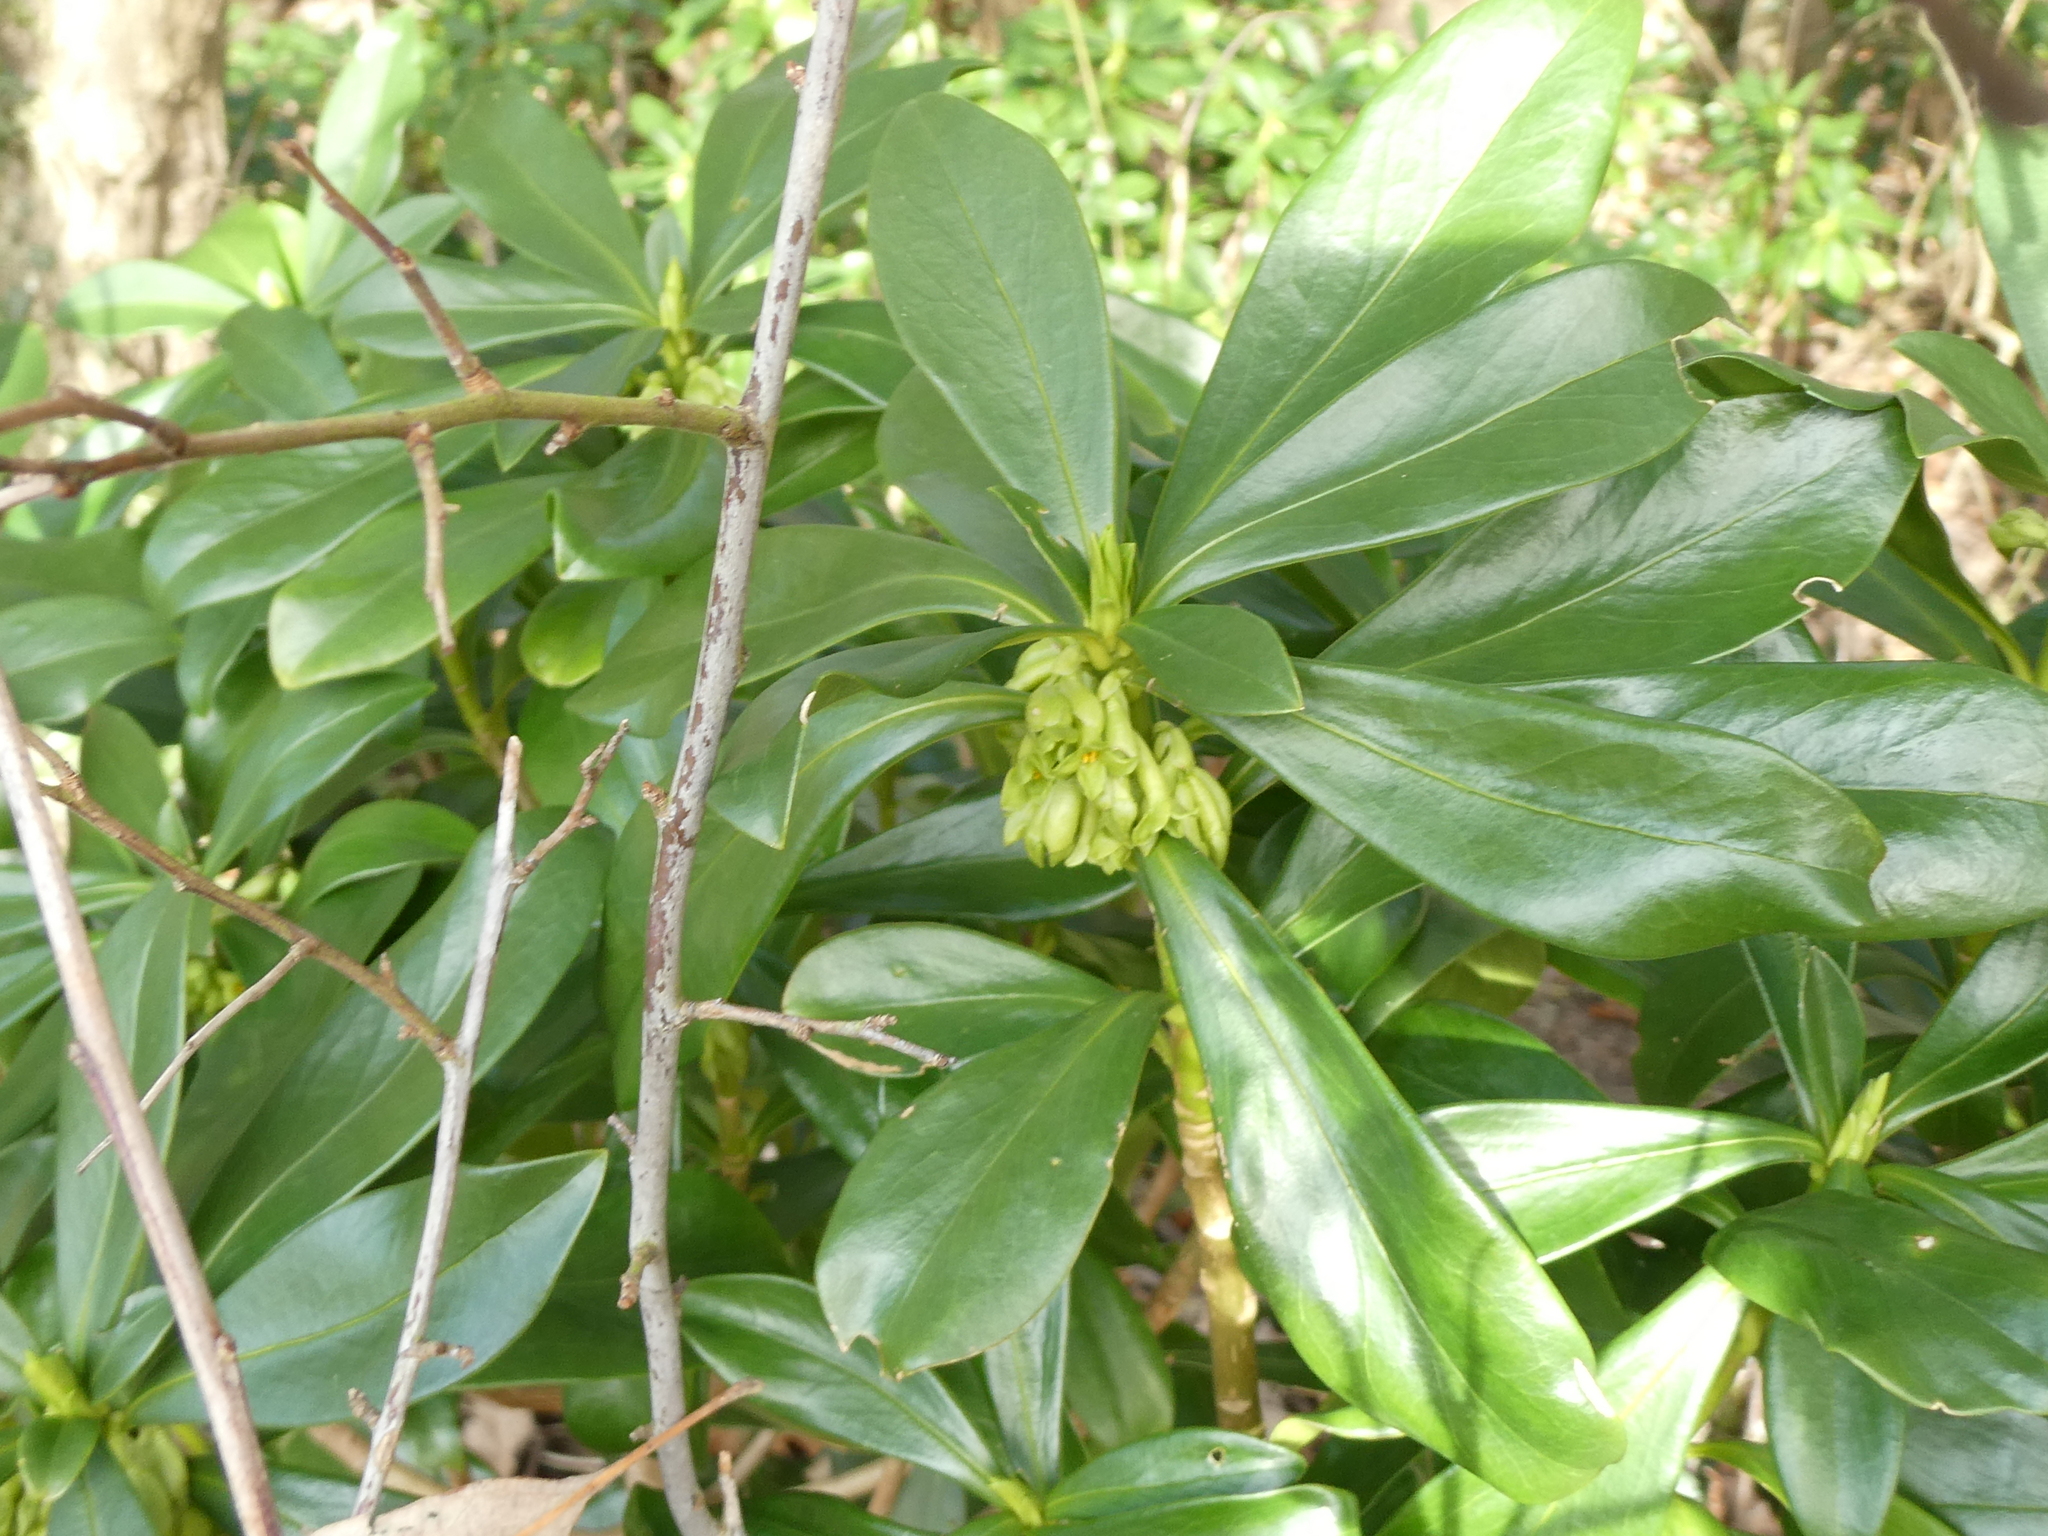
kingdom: Plantae
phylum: Tracheophyta
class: Magnoliopsida
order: Malvales
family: Thymelaeaceae
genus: Daphne
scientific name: Daphne laureola
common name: Spurge-laurel
